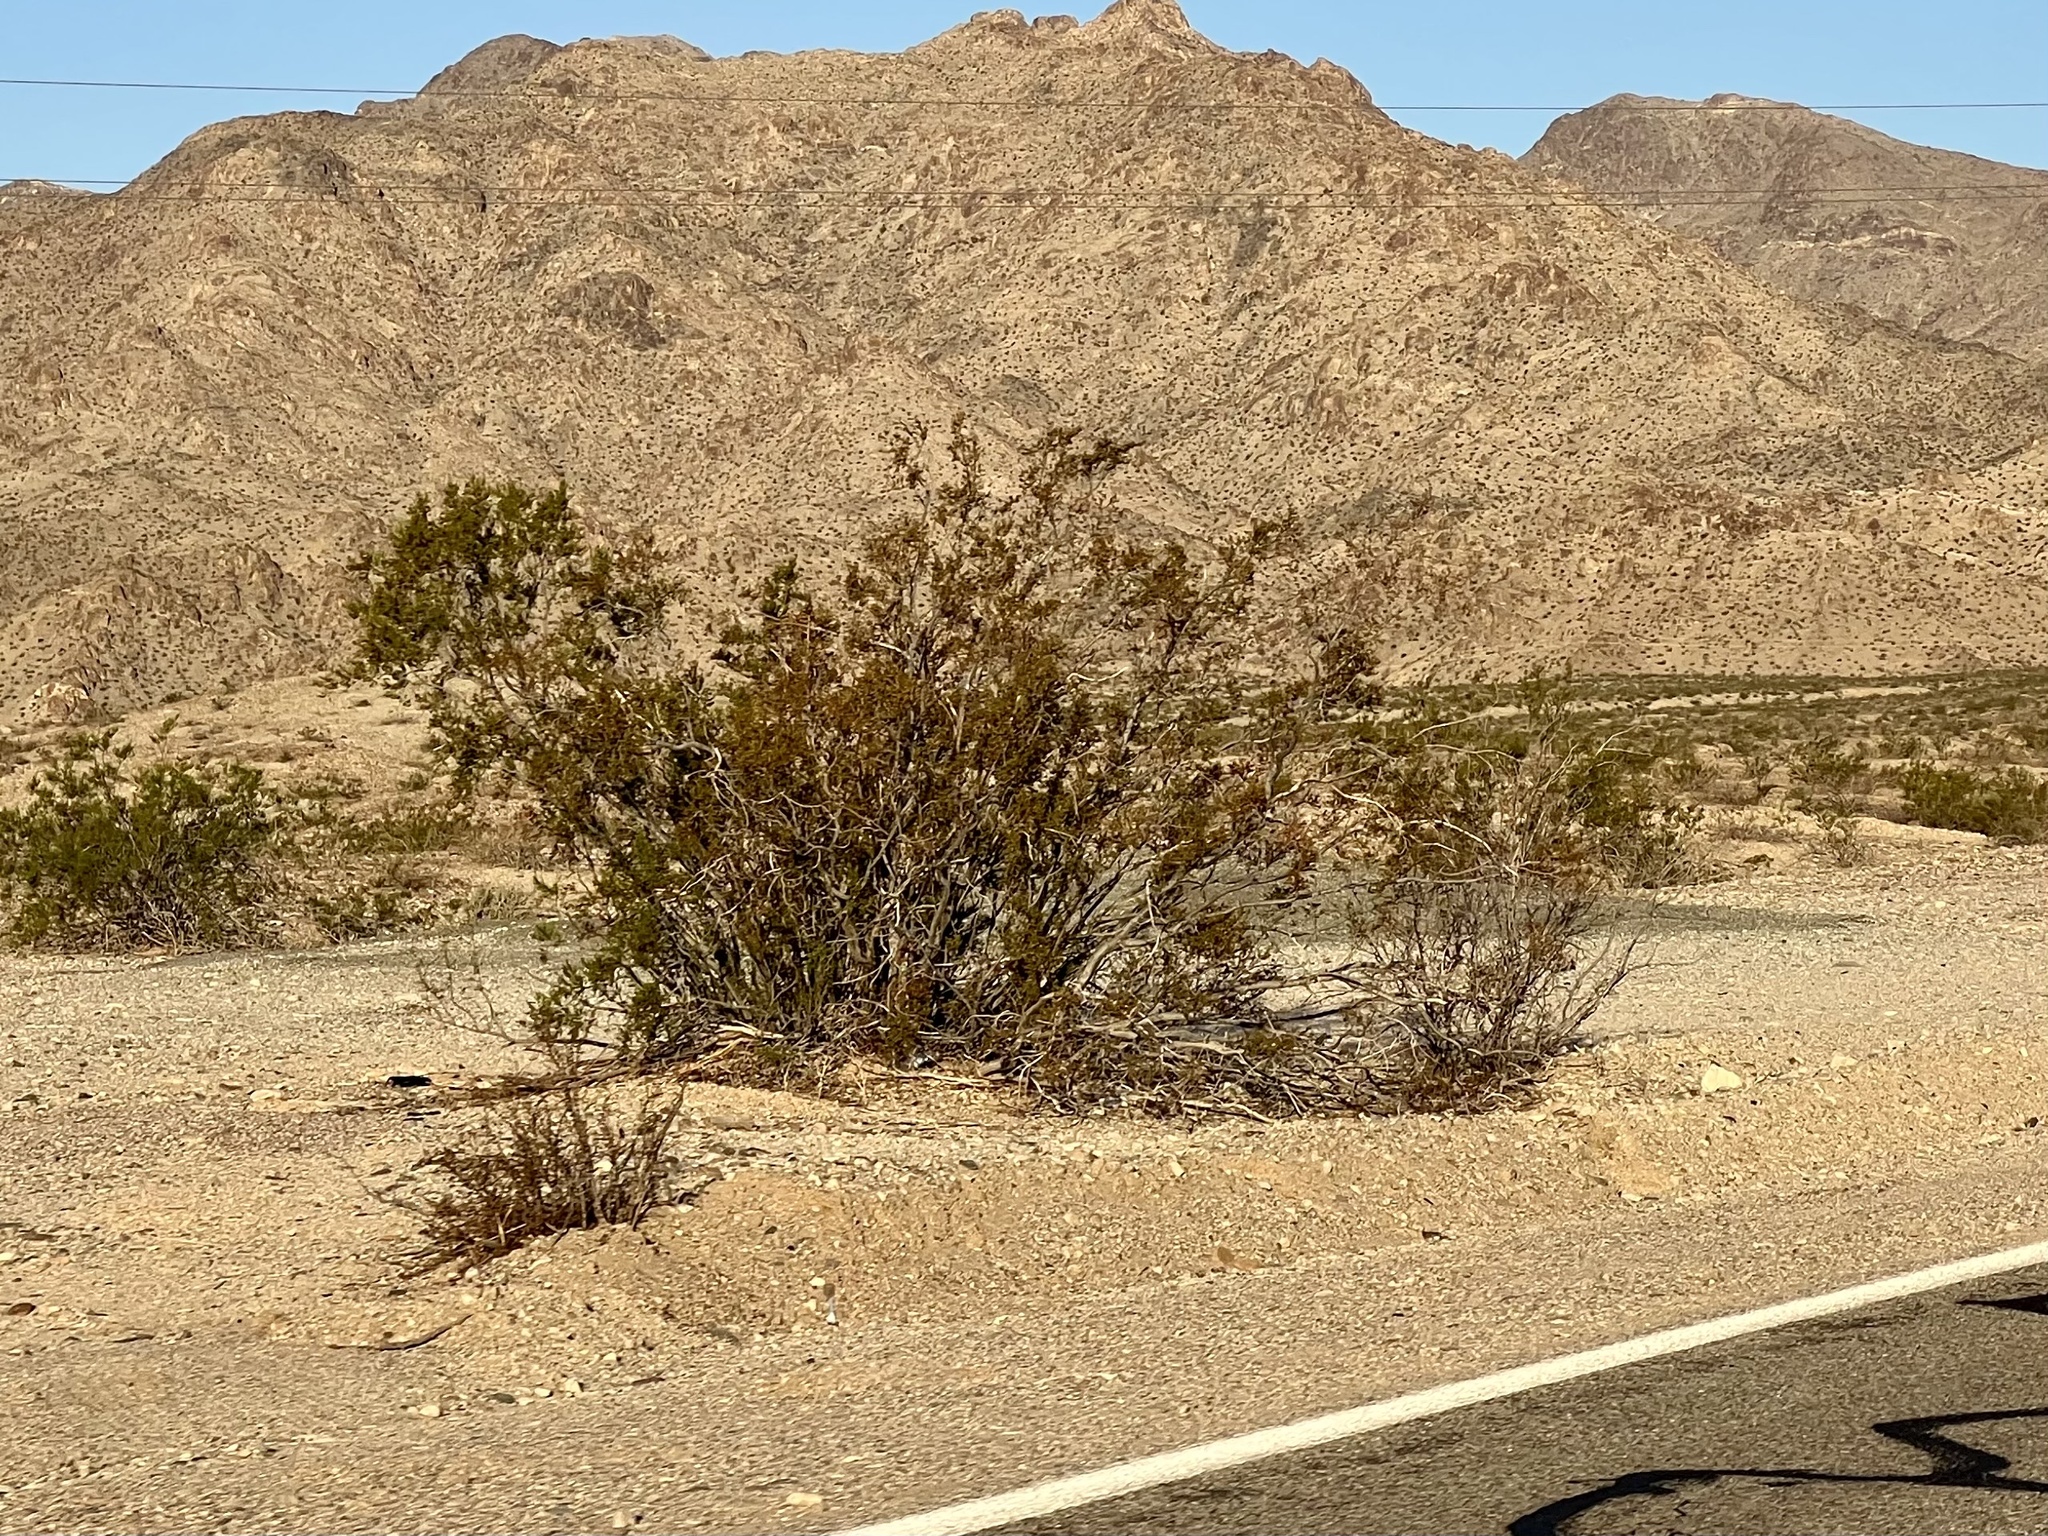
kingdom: Plantae
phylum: Tracheophyta
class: Magnoliopsida
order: Zygophyllales
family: Zygophyllaceae
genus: Larrea
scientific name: Larrea tridentata
